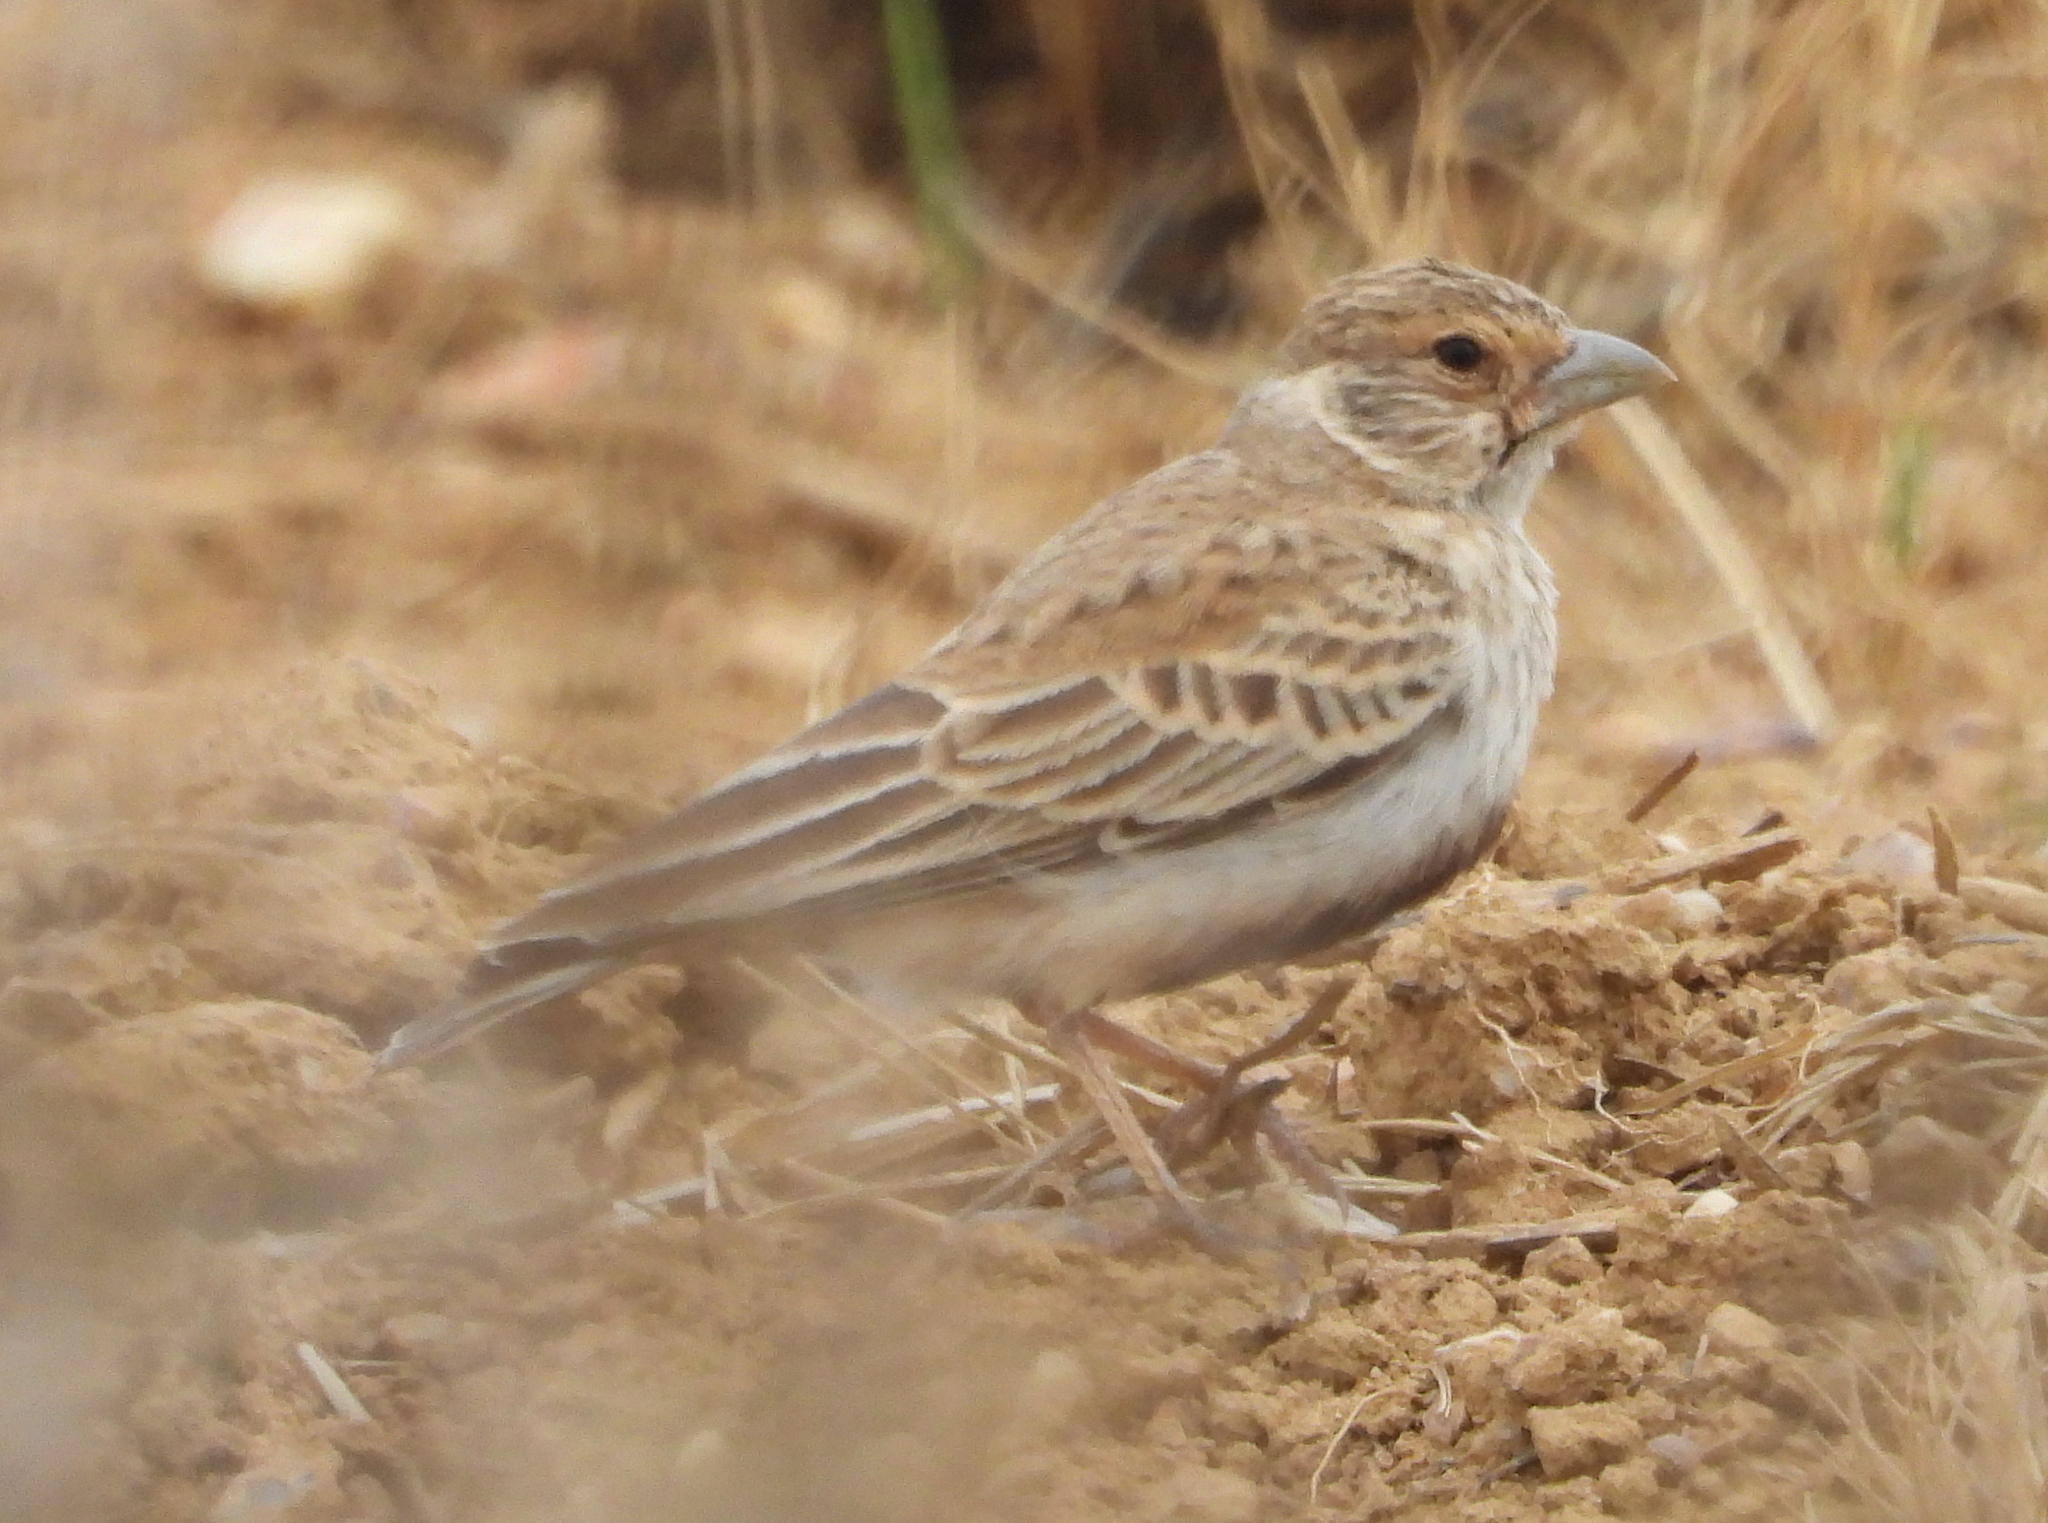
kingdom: Animalia
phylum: Chordata
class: Aves
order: Passeriformes
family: Alaudidae
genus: Eremopterix
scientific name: Eremopterix verticalis
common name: Grey-backed sparrow-lark
